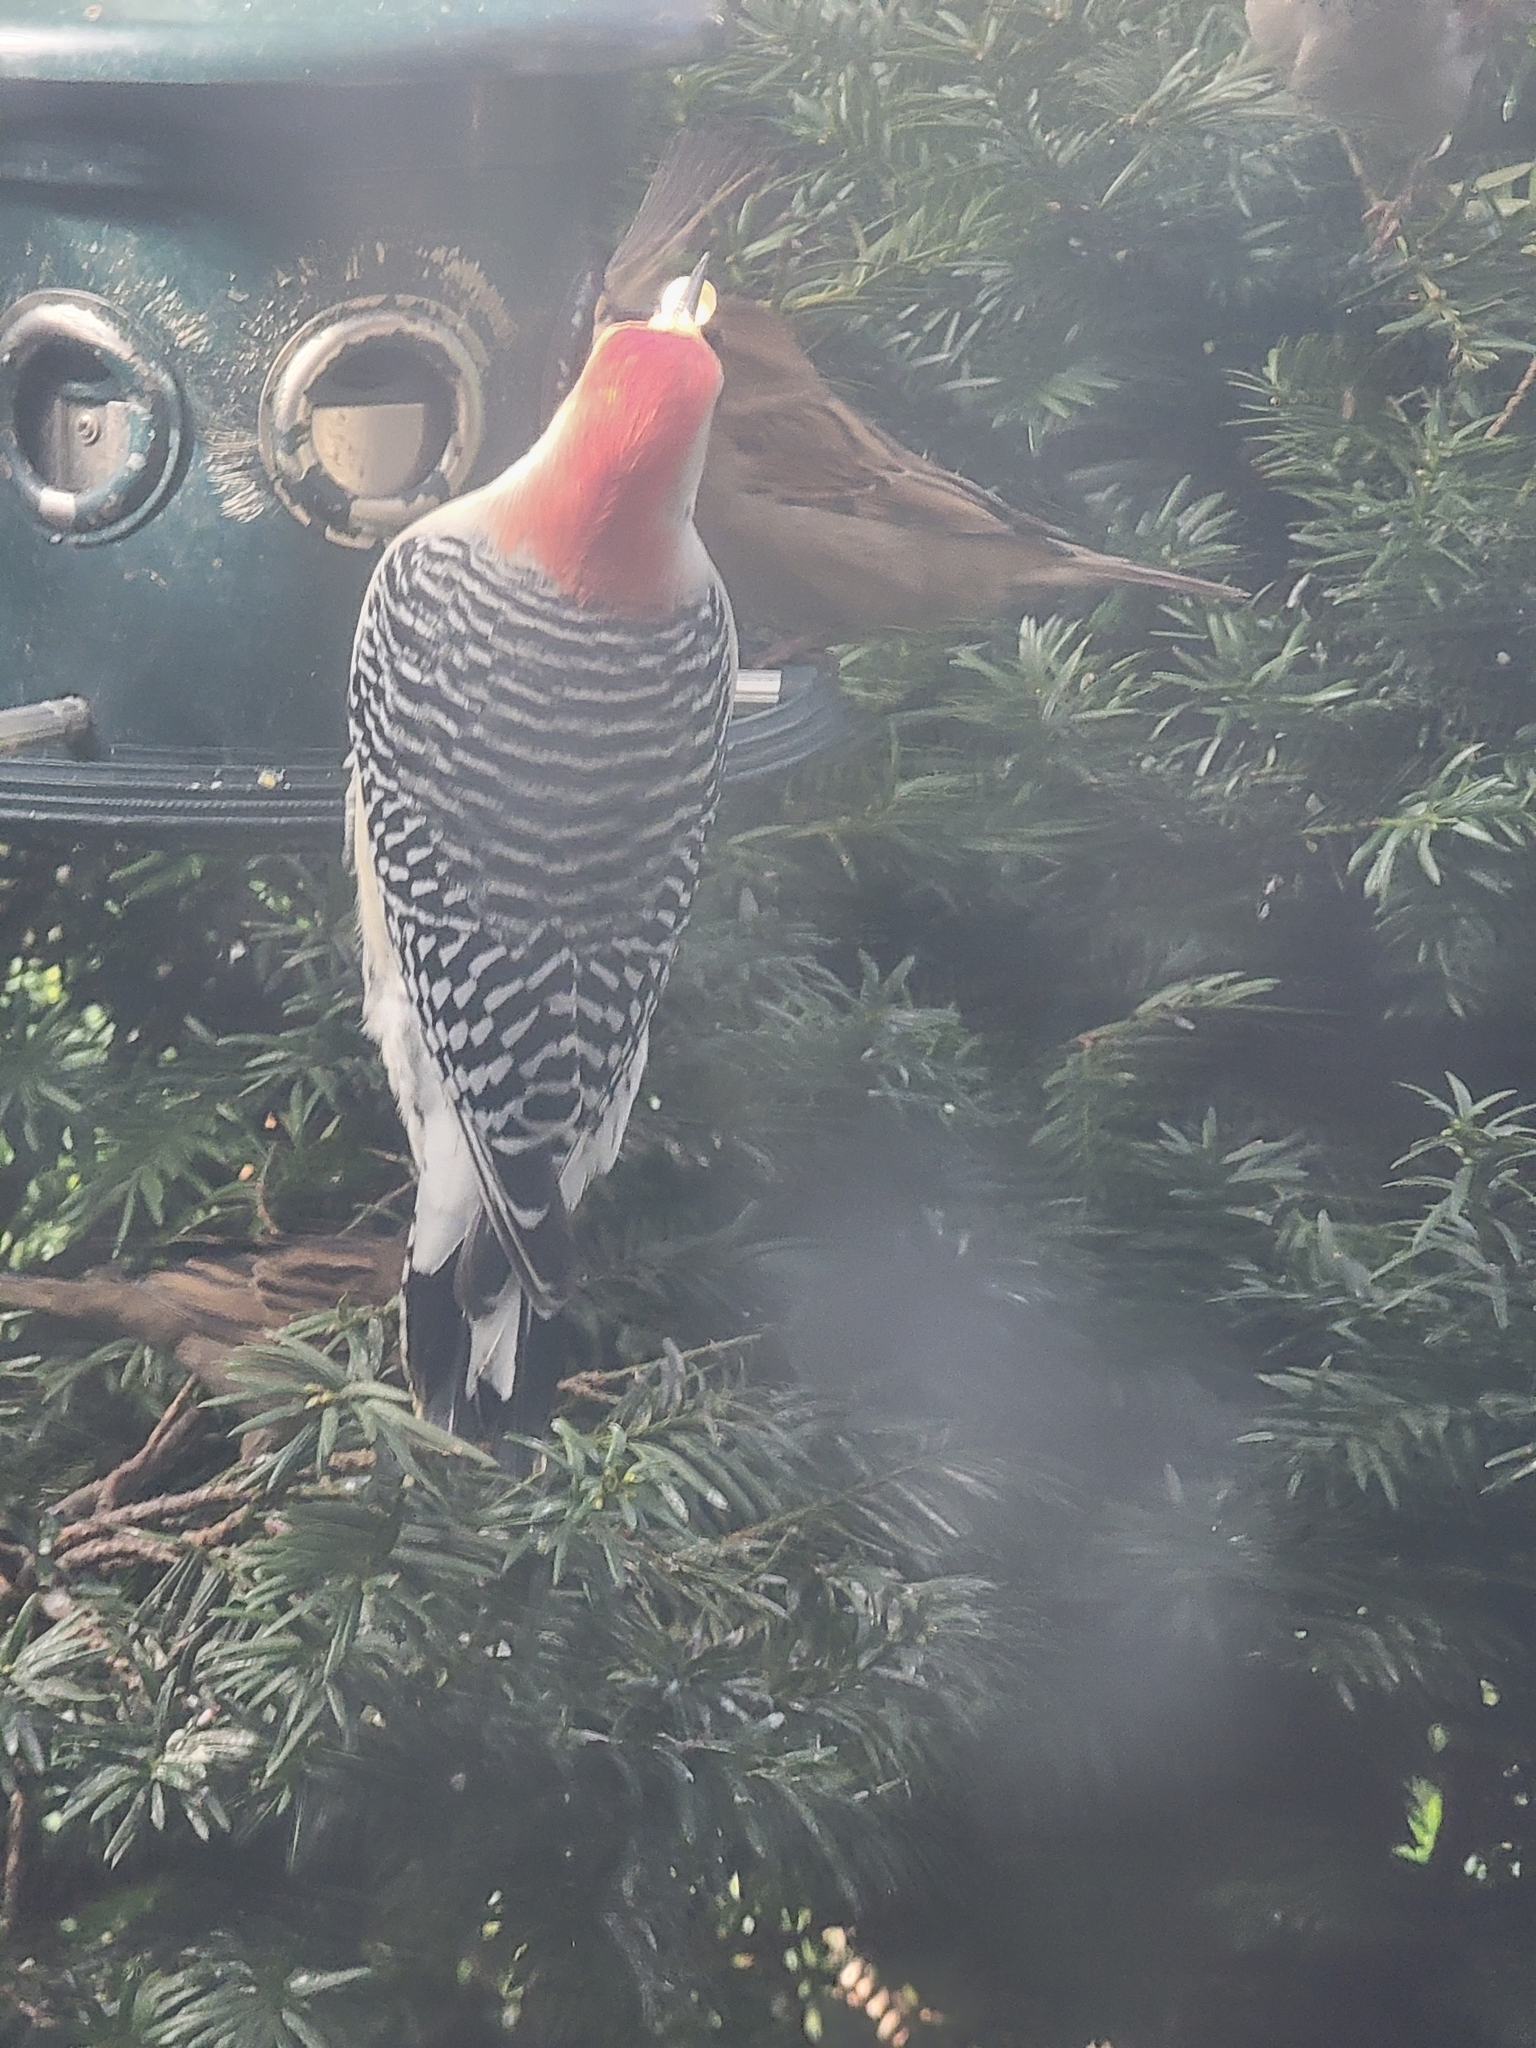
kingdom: Animalia
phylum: Chordata
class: Aves
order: Piciformes
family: Picidae
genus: Melanerpes
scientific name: Melanerpes carolinus
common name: Red-bellied woodpecker
